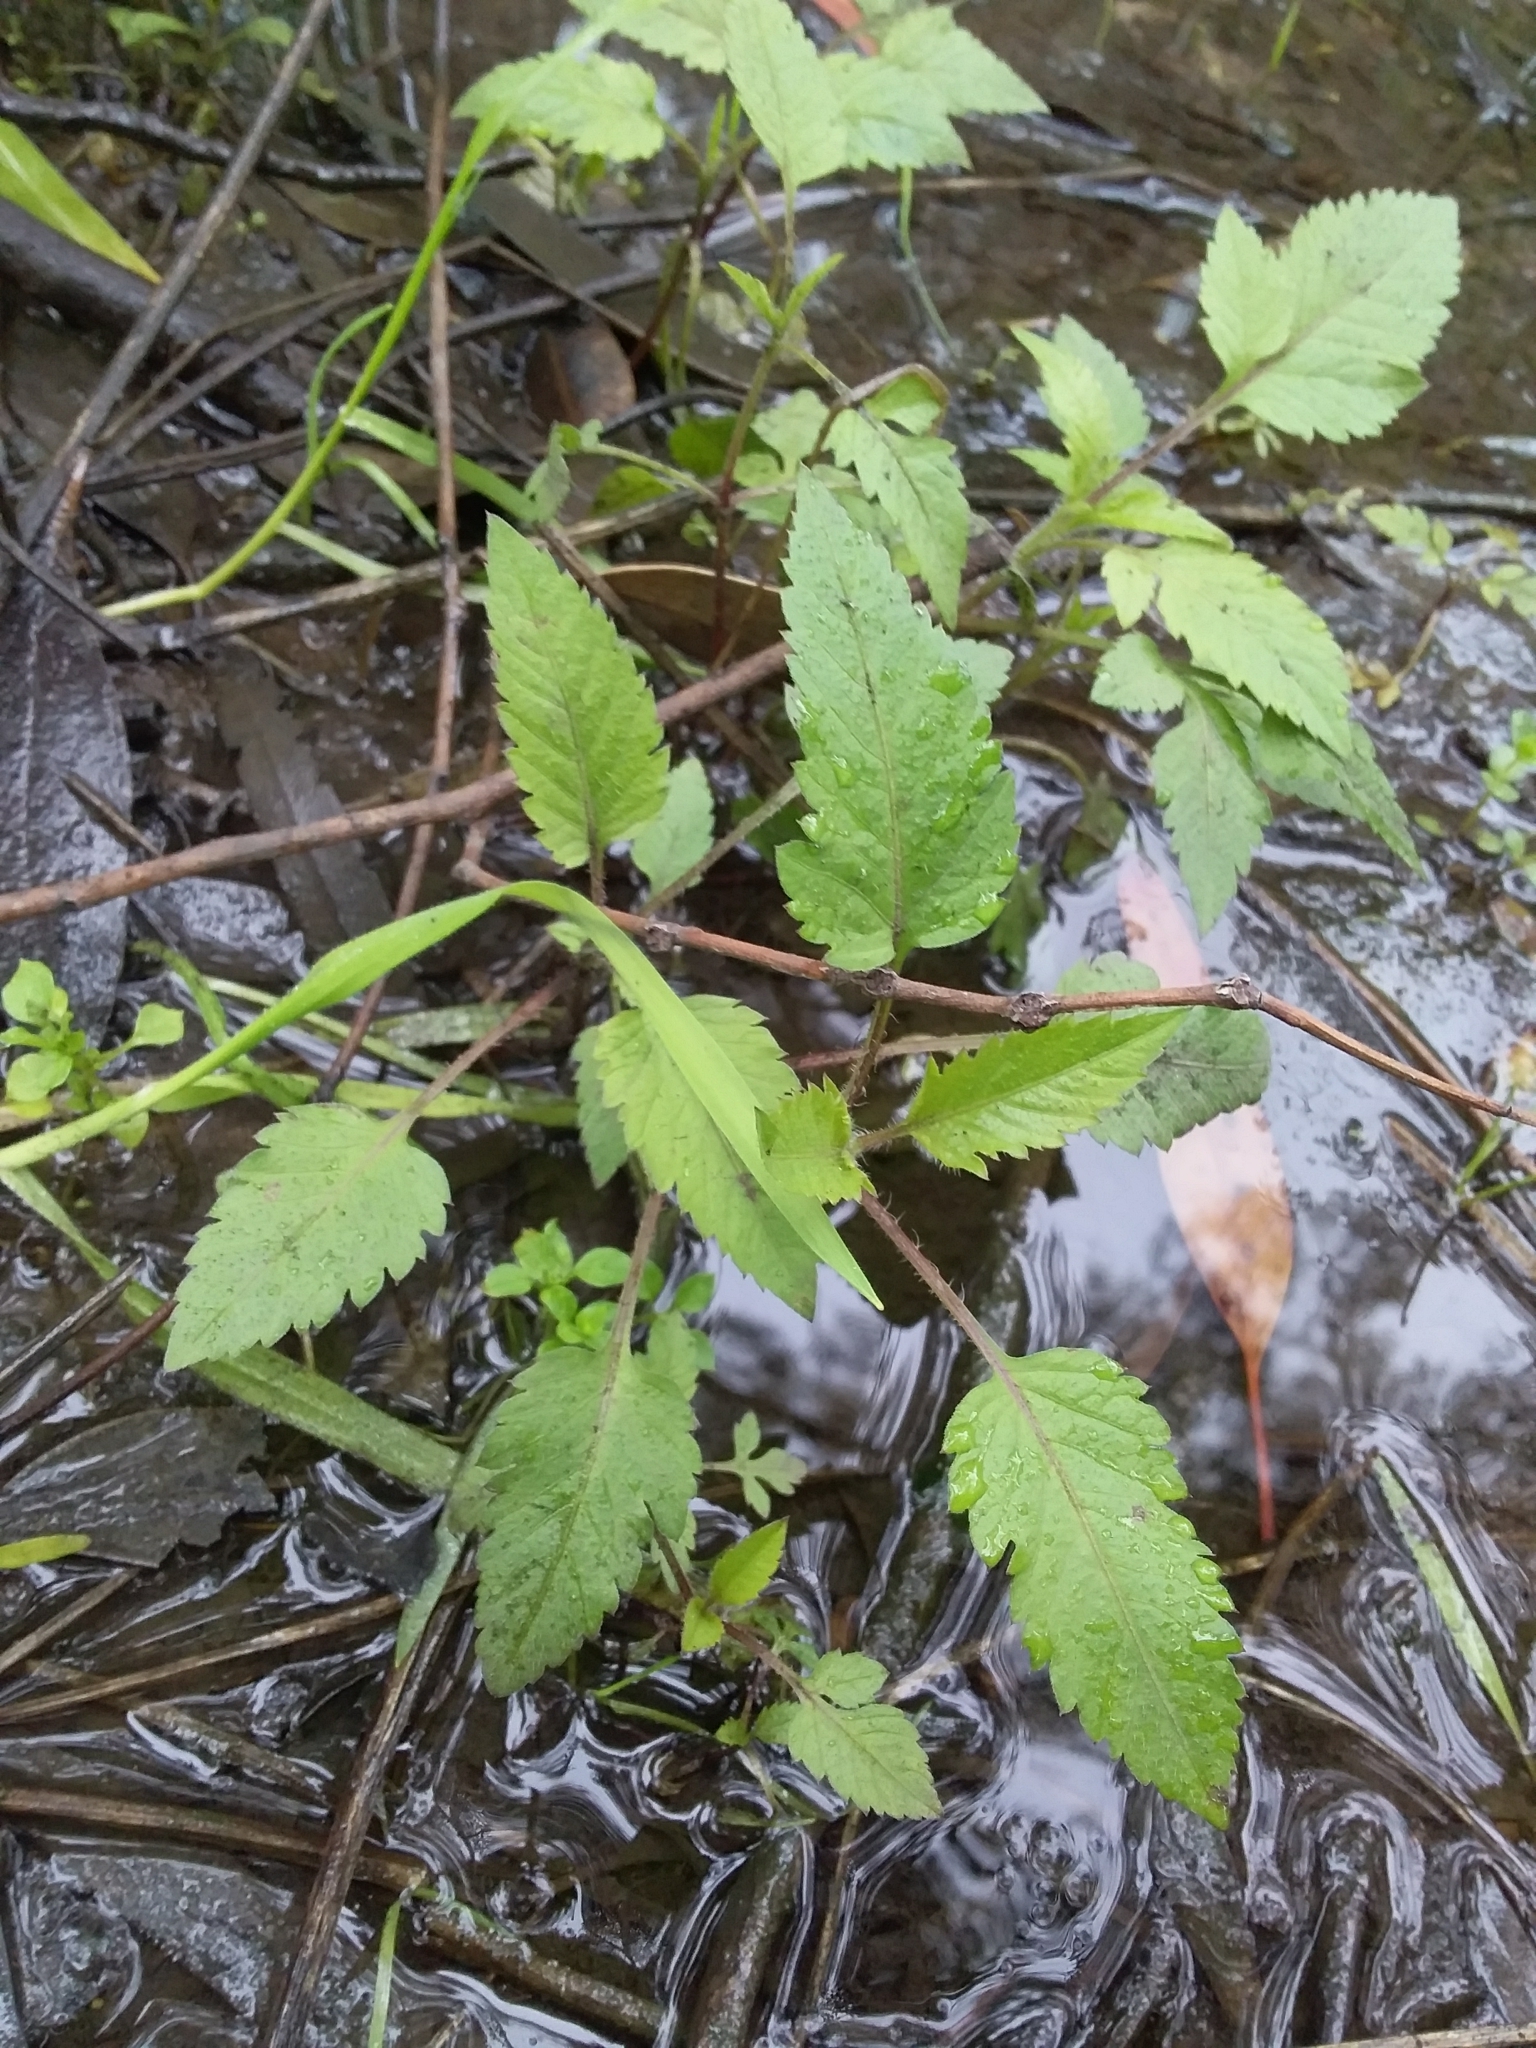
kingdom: Plantae
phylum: Tracheophyta
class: Magnoliopsida
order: Asterales
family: Asteraceae
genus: Bidens
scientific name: Bidens pilosa
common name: Black-jack
